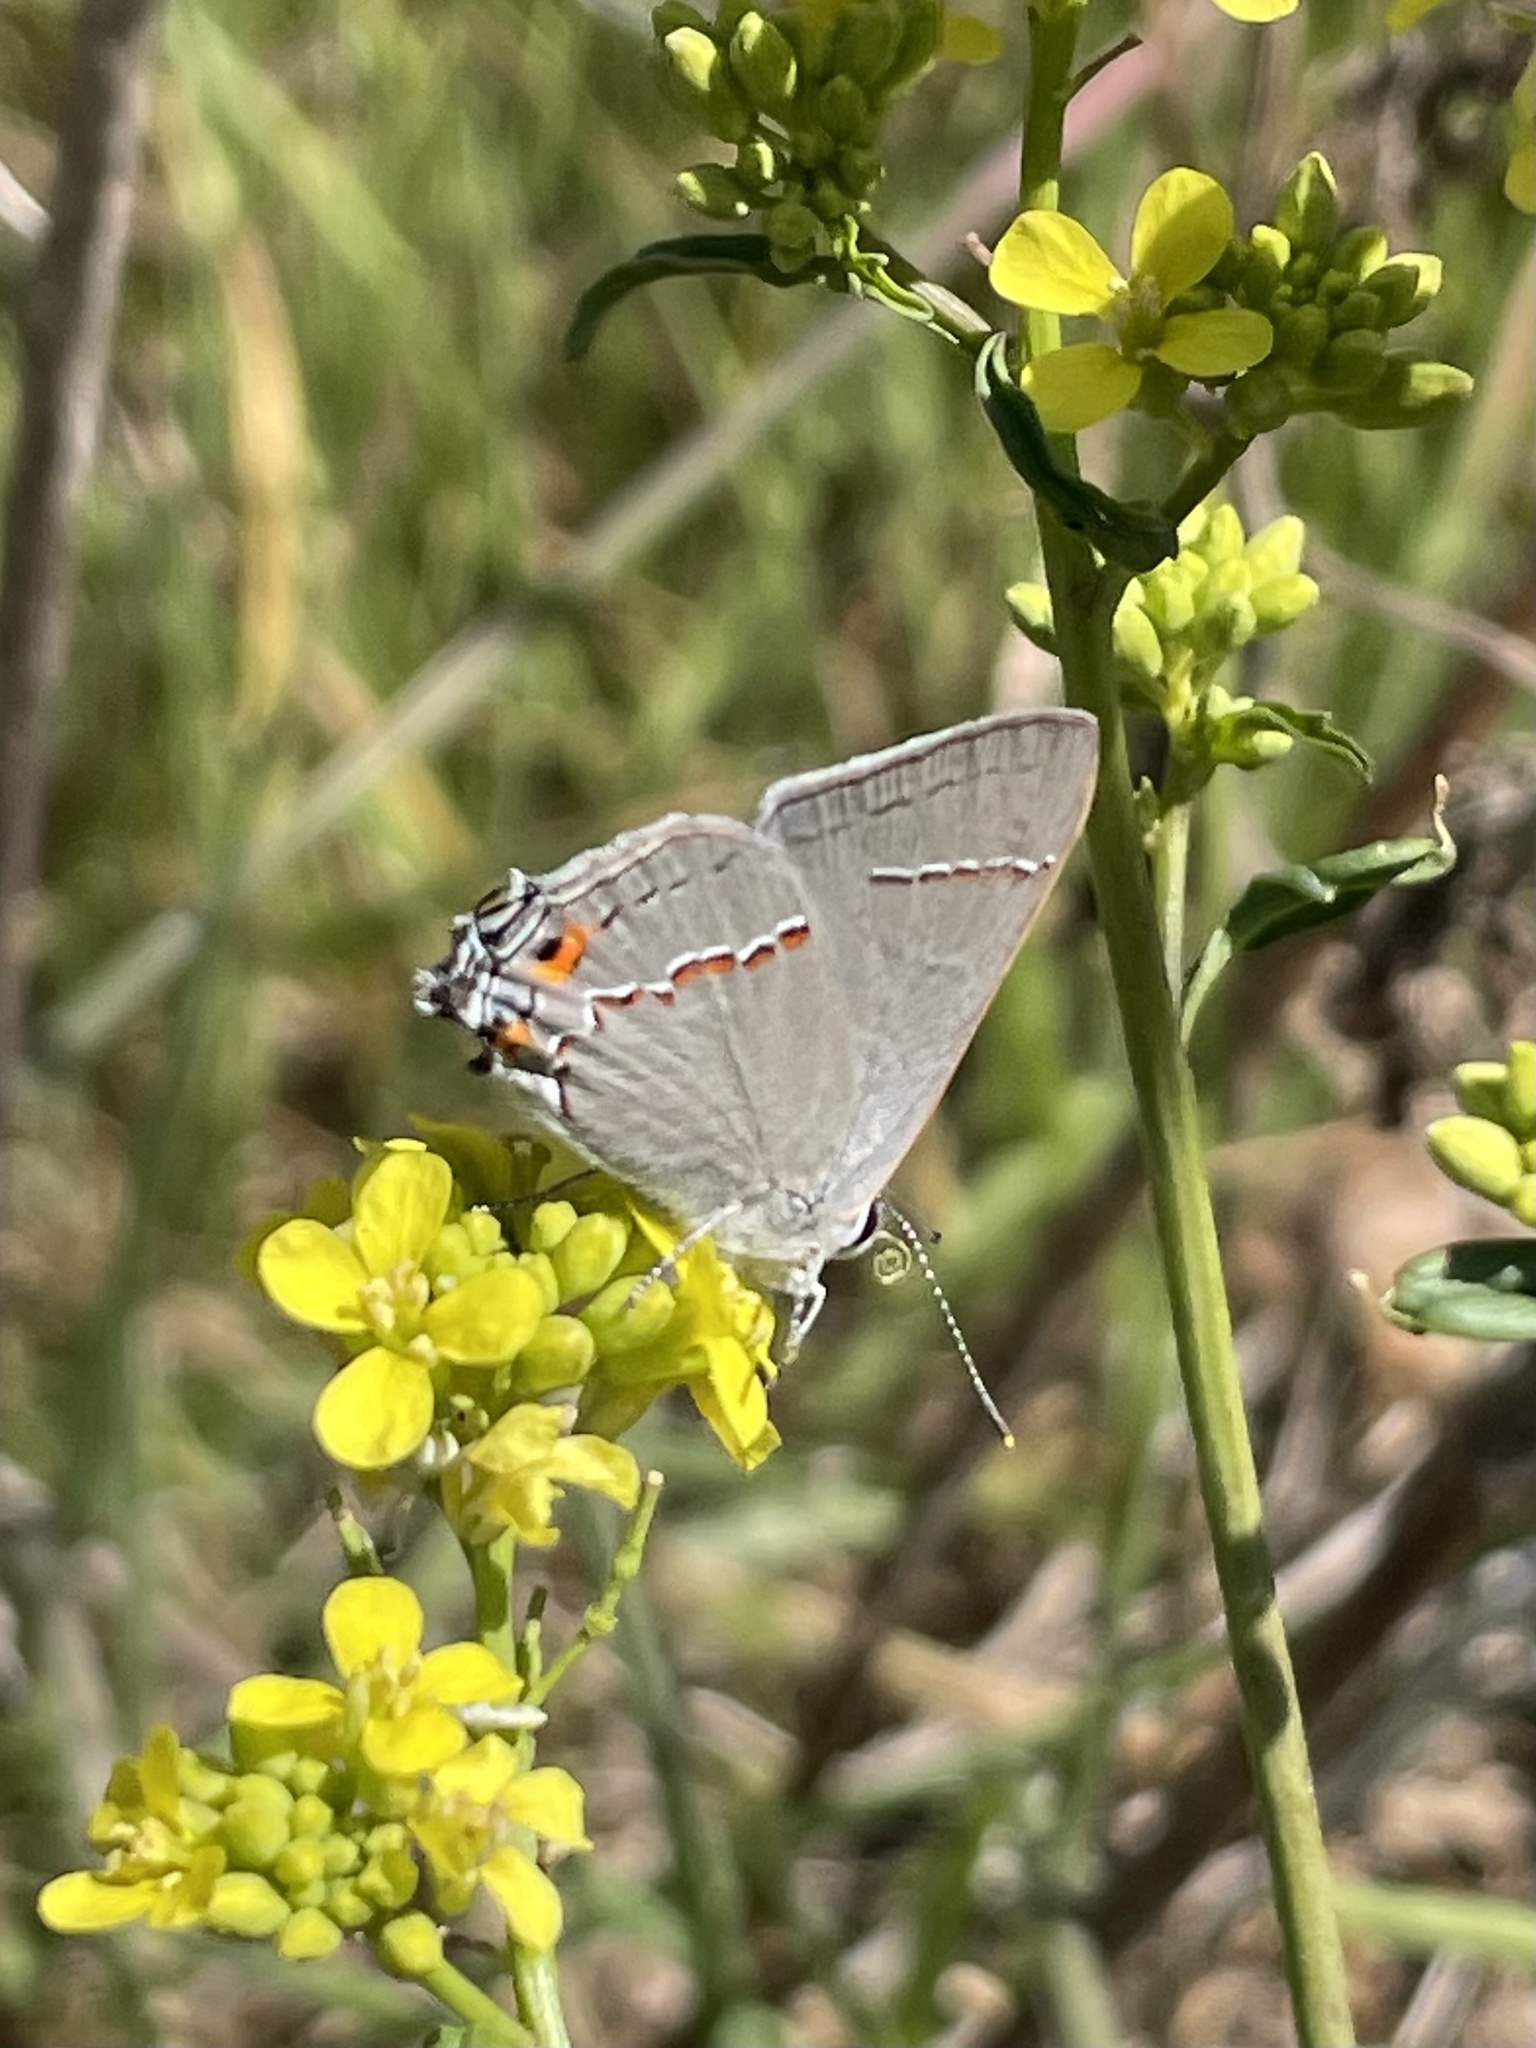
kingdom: Animalia
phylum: Arthropoda
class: Insecta
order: Lepidoptera
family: Lycaenidae
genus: Strymon
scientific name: Strymon melinus
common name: Gray hairstreak
